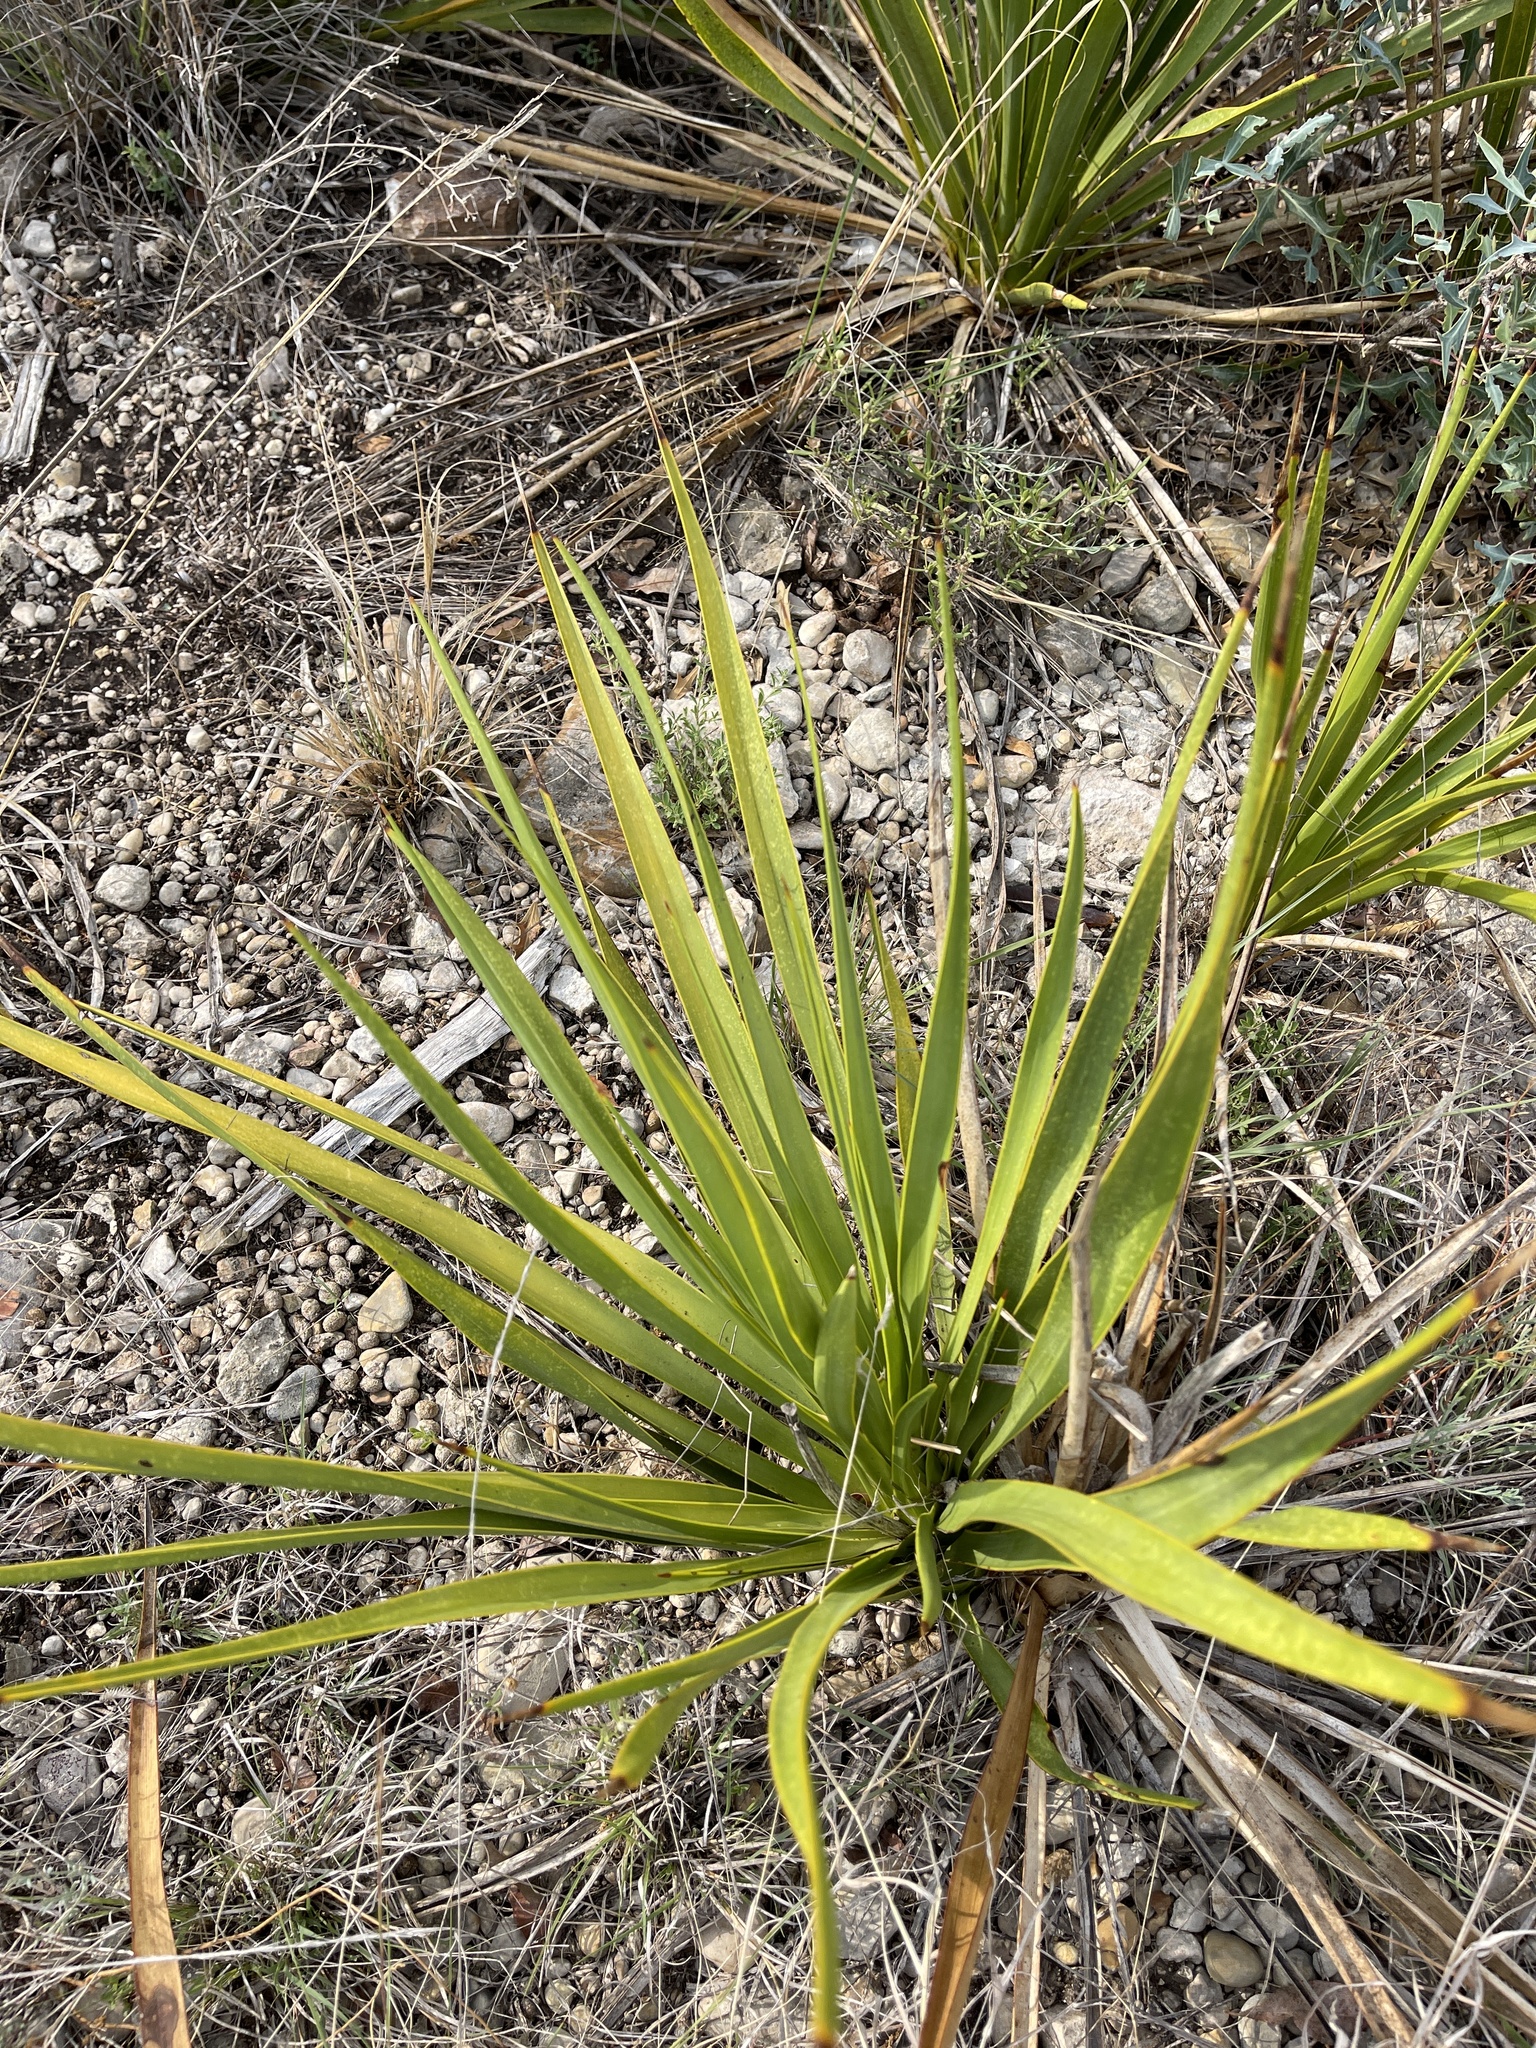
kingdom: Plantae
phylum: Tracheophyta
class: Liliopsida
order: Asparagales
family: Asparagaceae
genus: Yucca
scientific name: Yucca rupicola
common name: Twisted-leaf spanish-dagger
